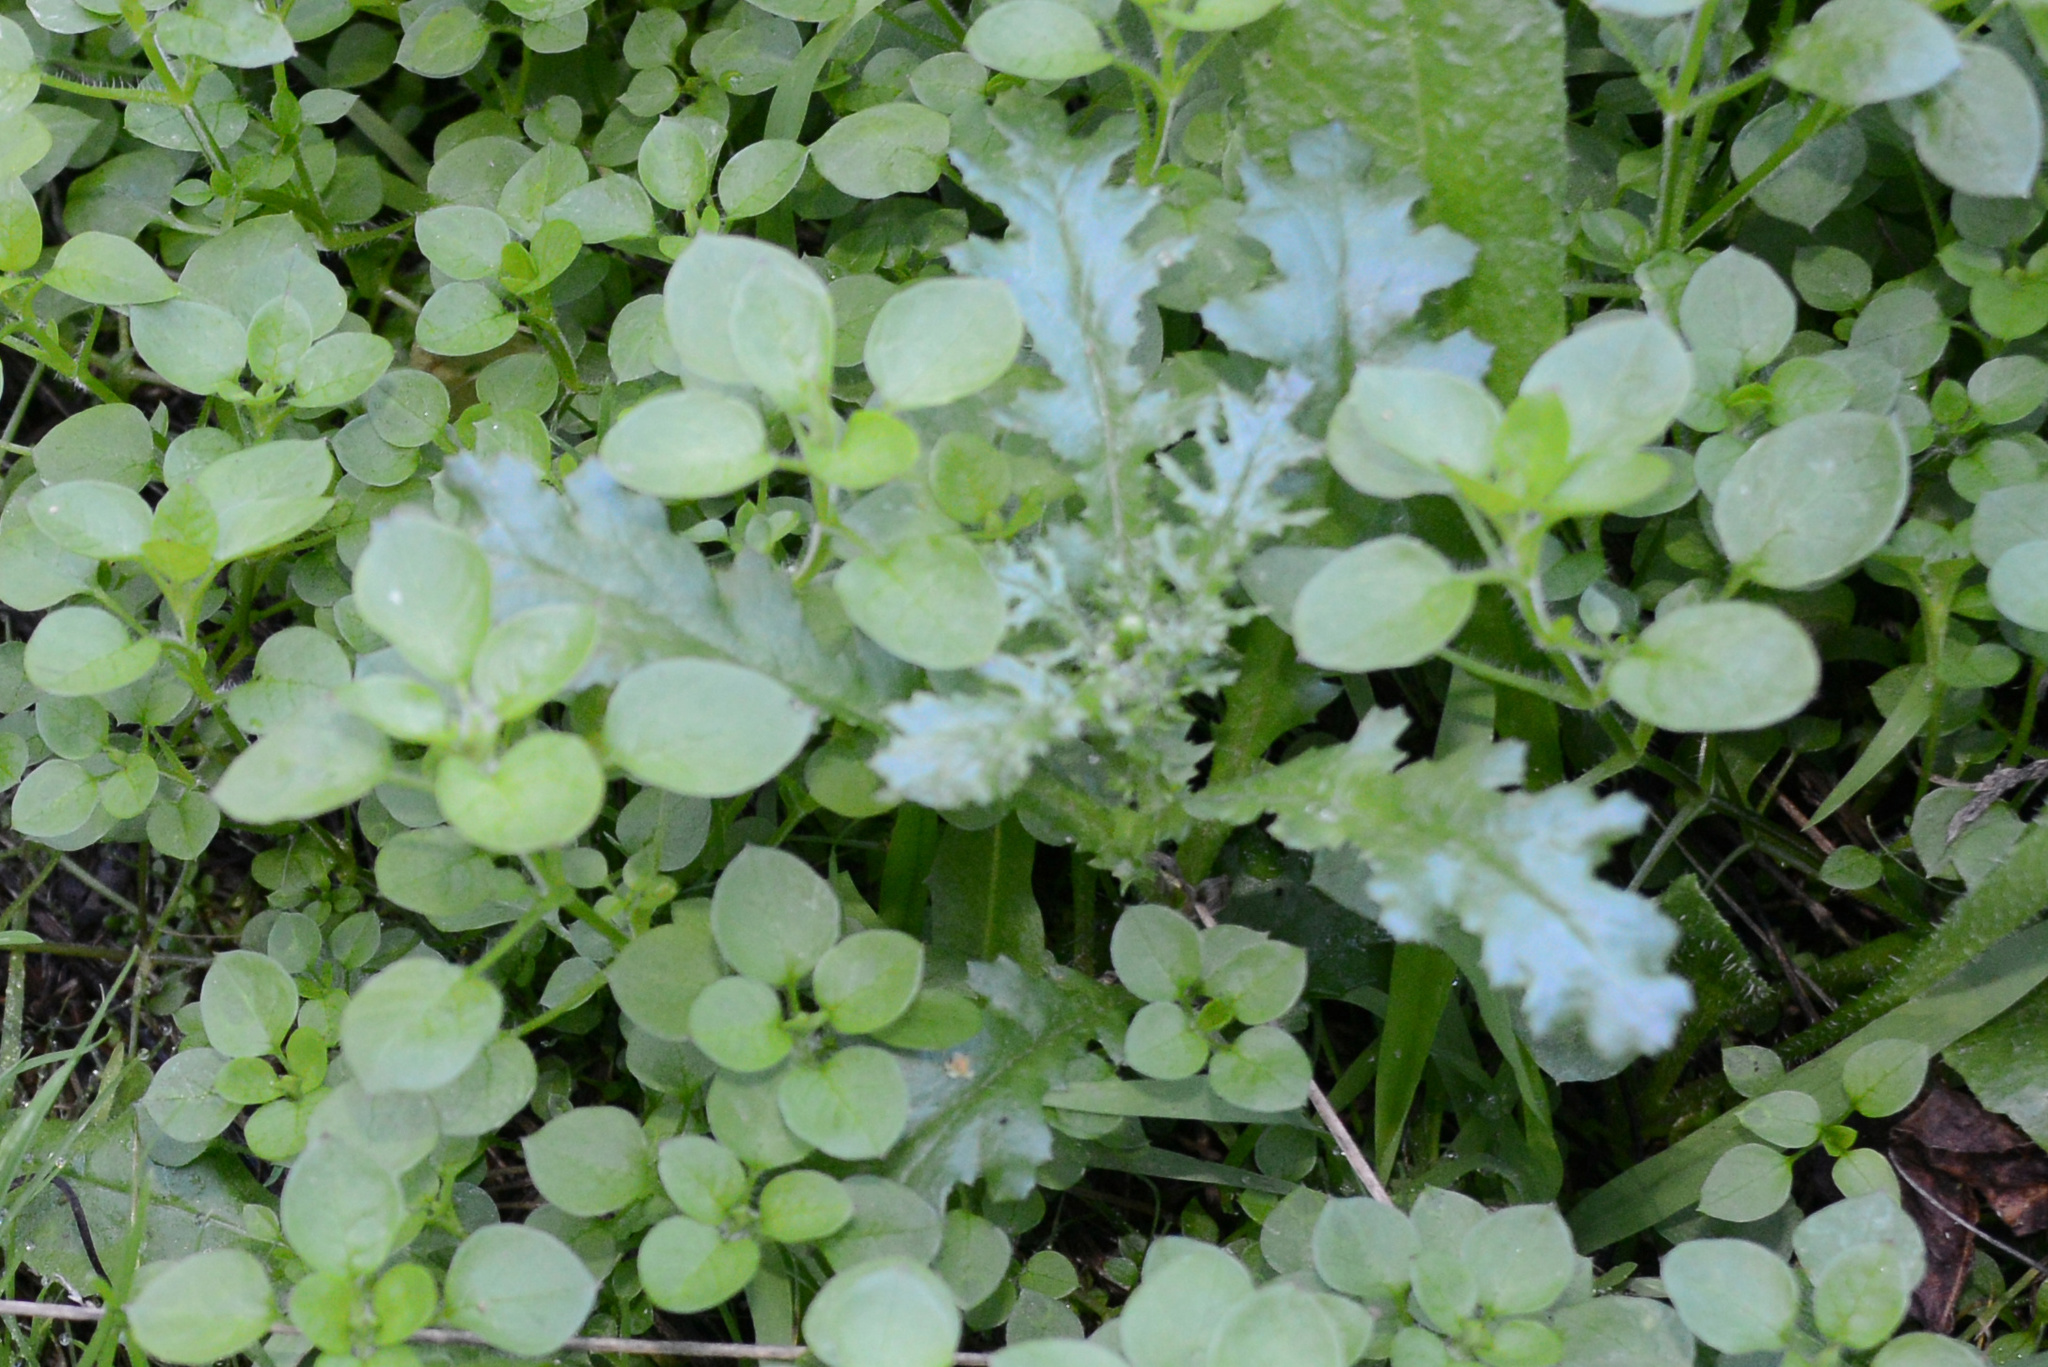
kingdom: Plantae
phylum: Tracheophyta
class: Magnoliopsida
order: Asterales
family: Asteraceae
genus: Senecio
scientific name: Senecio vulgaris
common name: Old-man-in-the-spring
